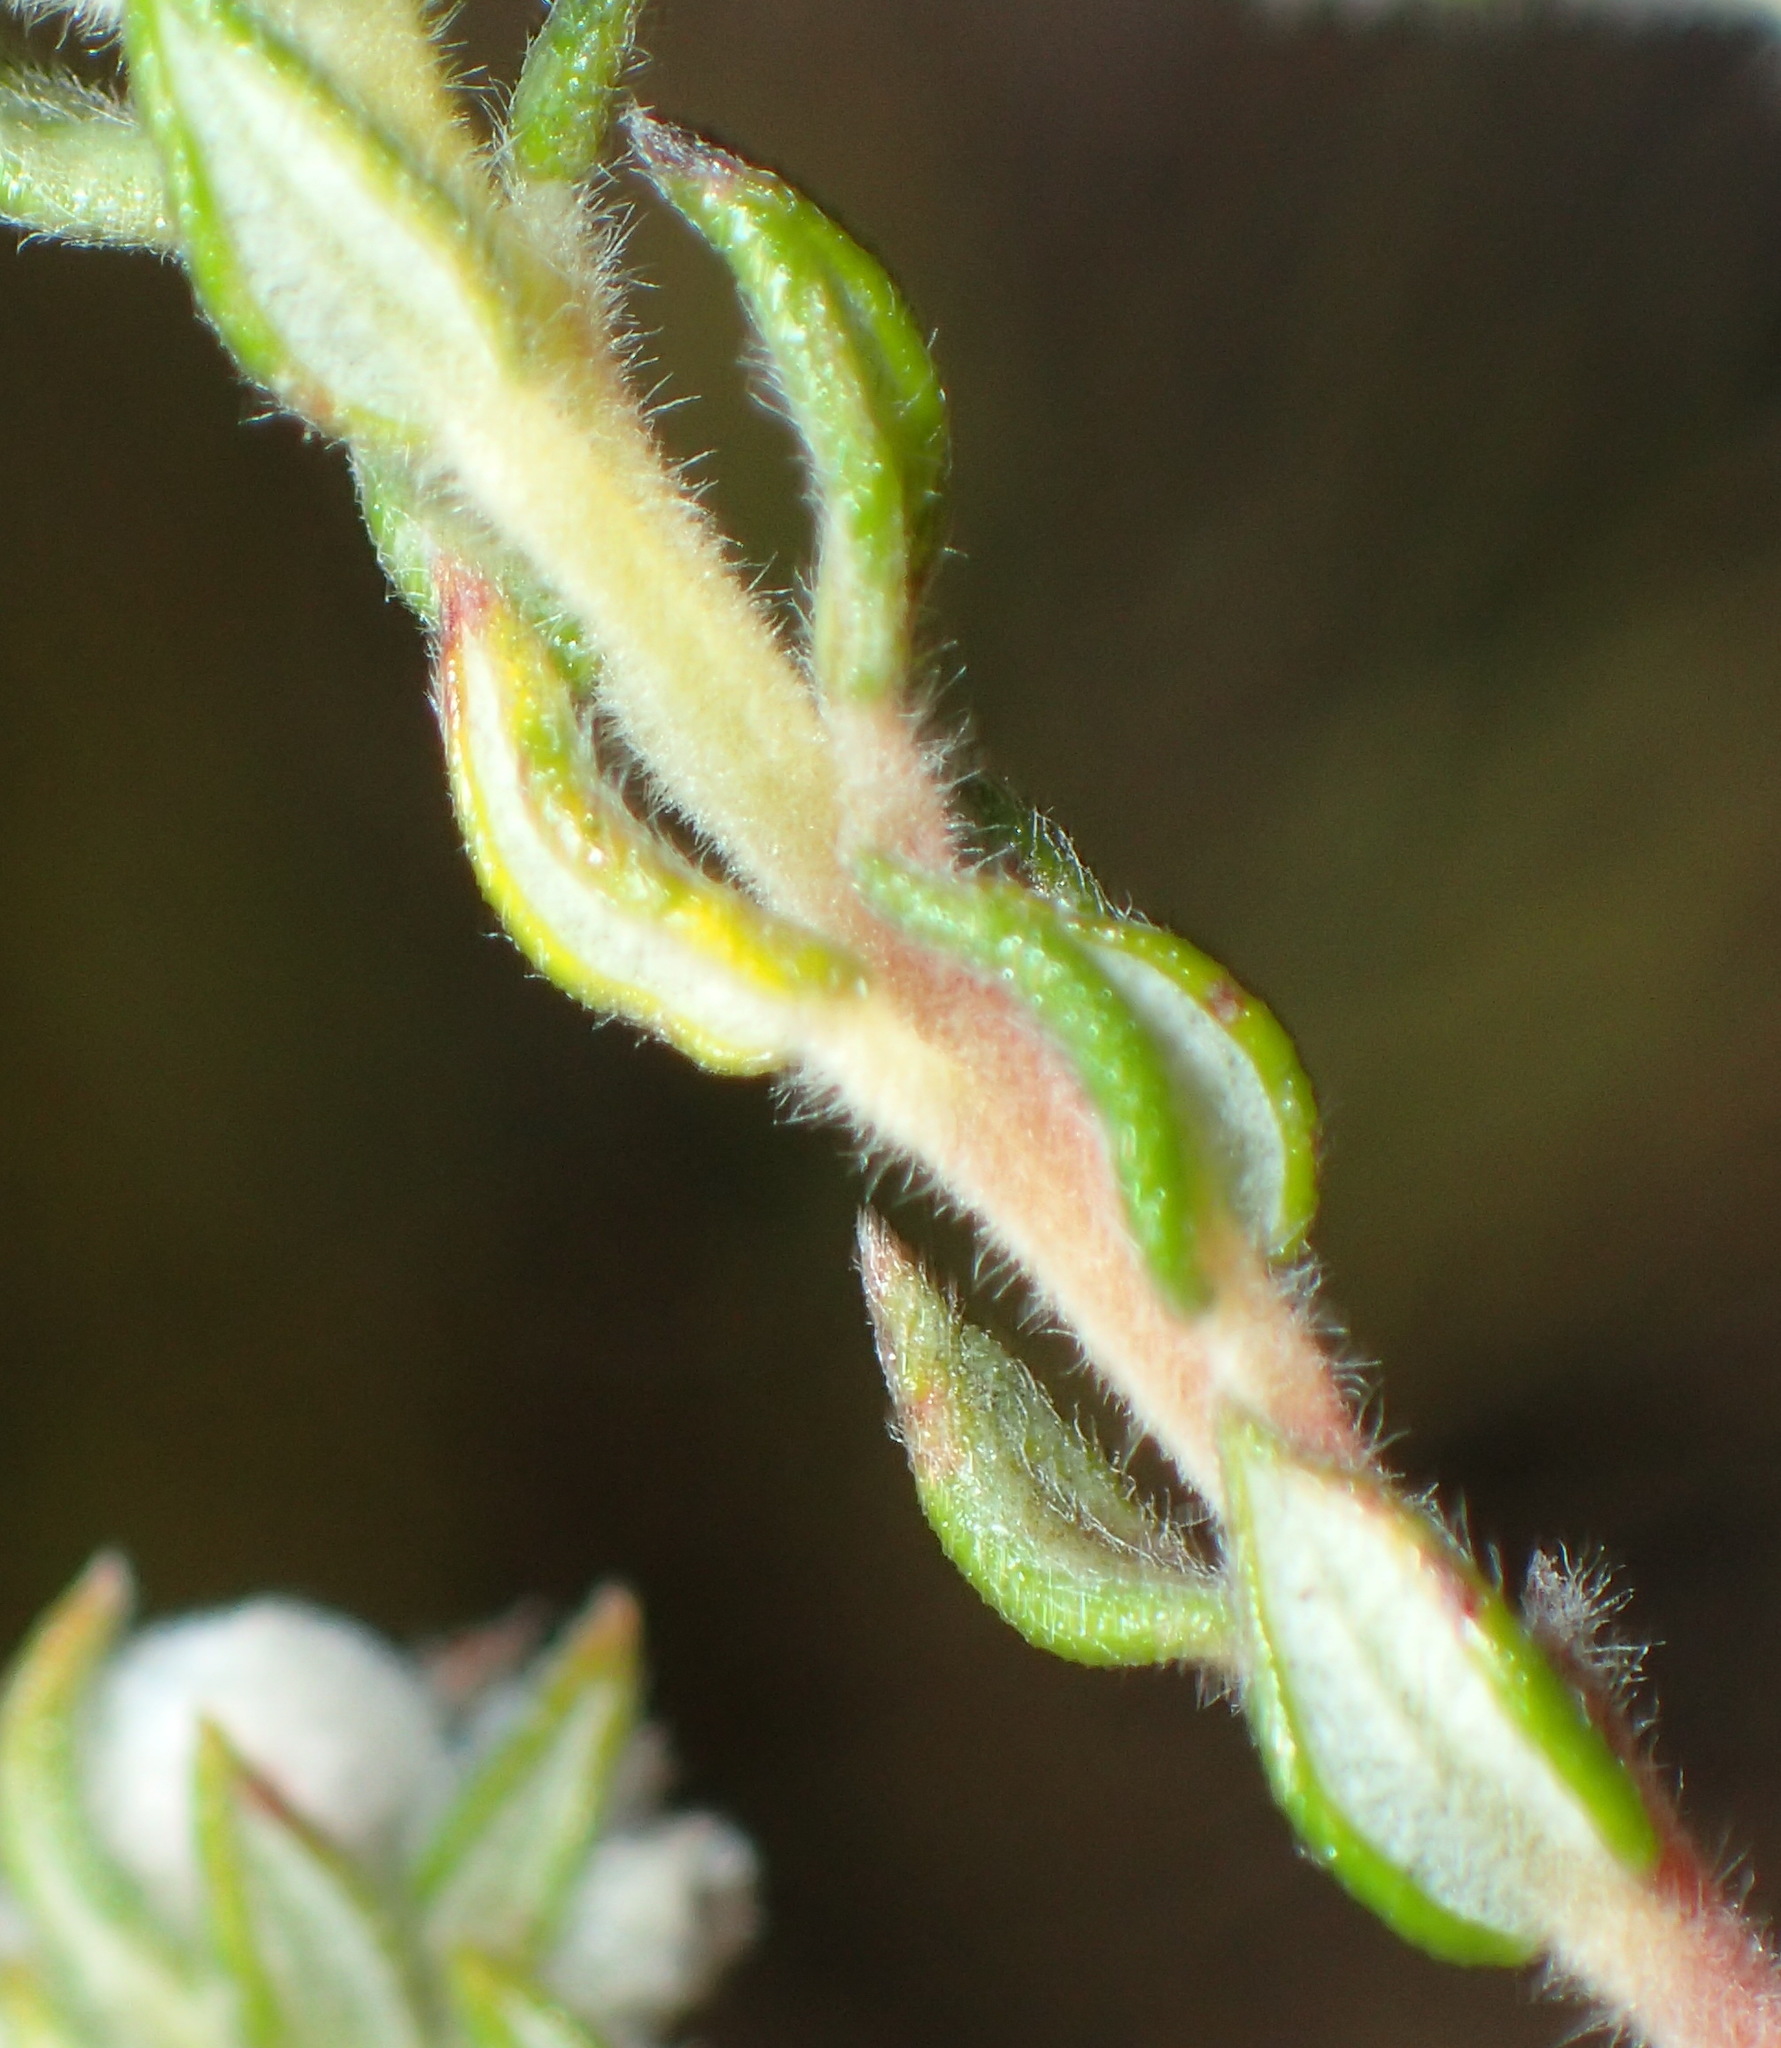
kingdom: Plantae
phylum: Tracheophyta
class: Magnoliopsida
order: Rosales
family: Rhamnaceae
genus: Phylica
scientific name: Phylica purpurea
